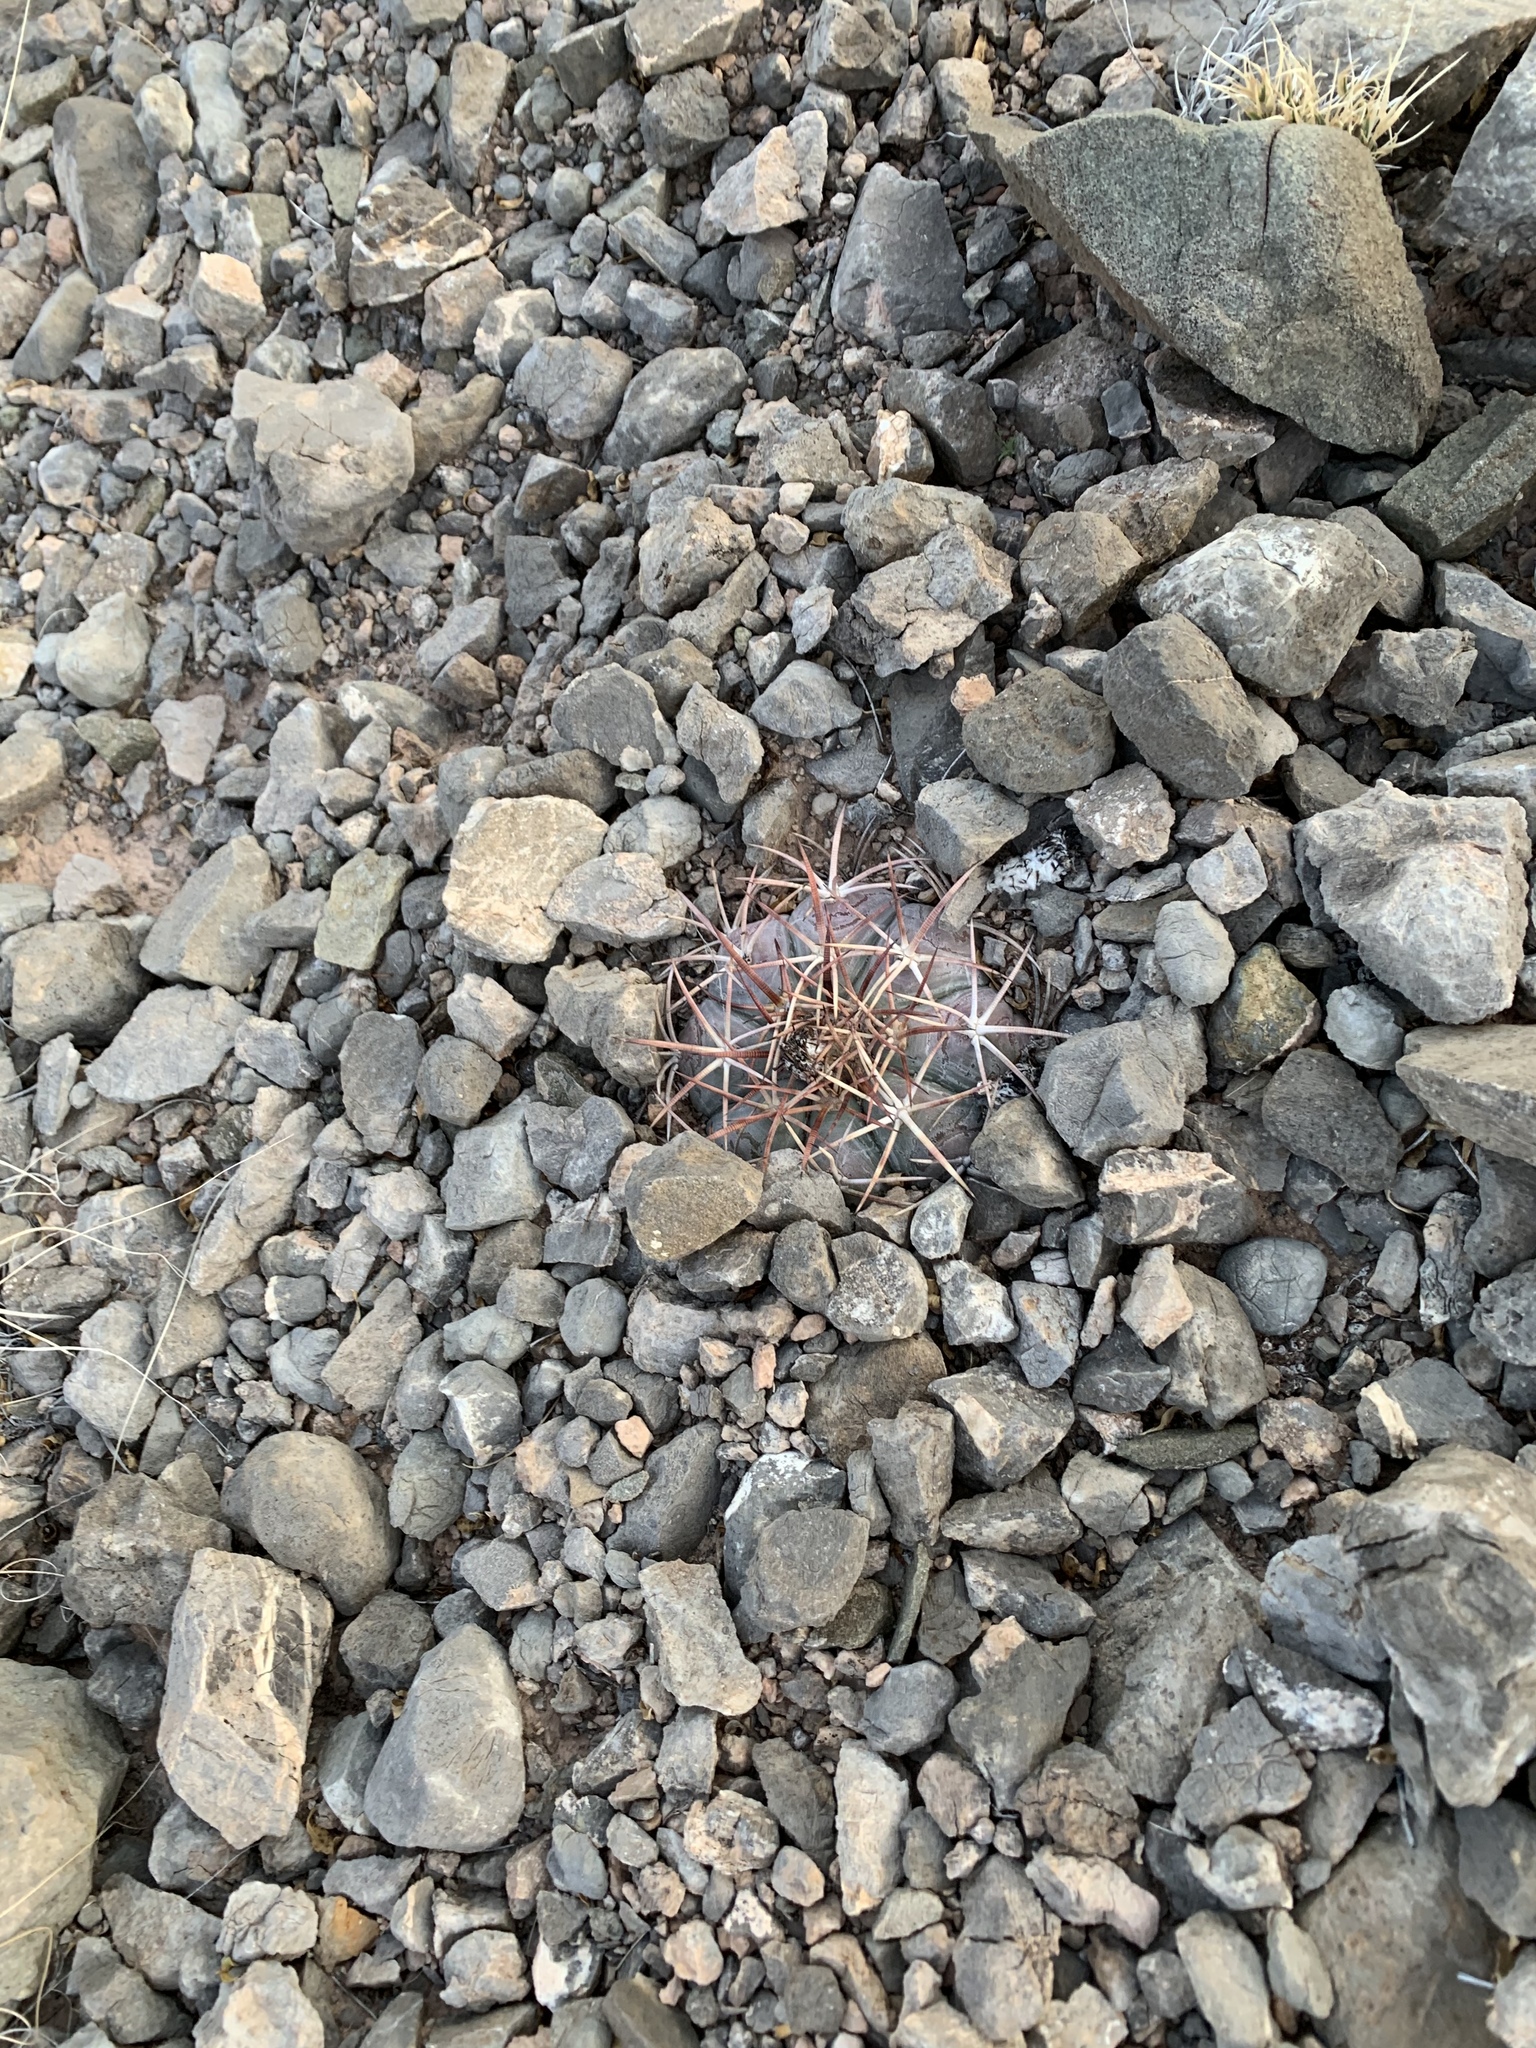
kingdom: Plantae
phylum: Tracheophyta
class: Magnoliopsida
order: Caryophyllales
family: Cactaceae
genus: Echinocactus
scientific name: Echinocactus horizonthalonius
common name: Devilshead
